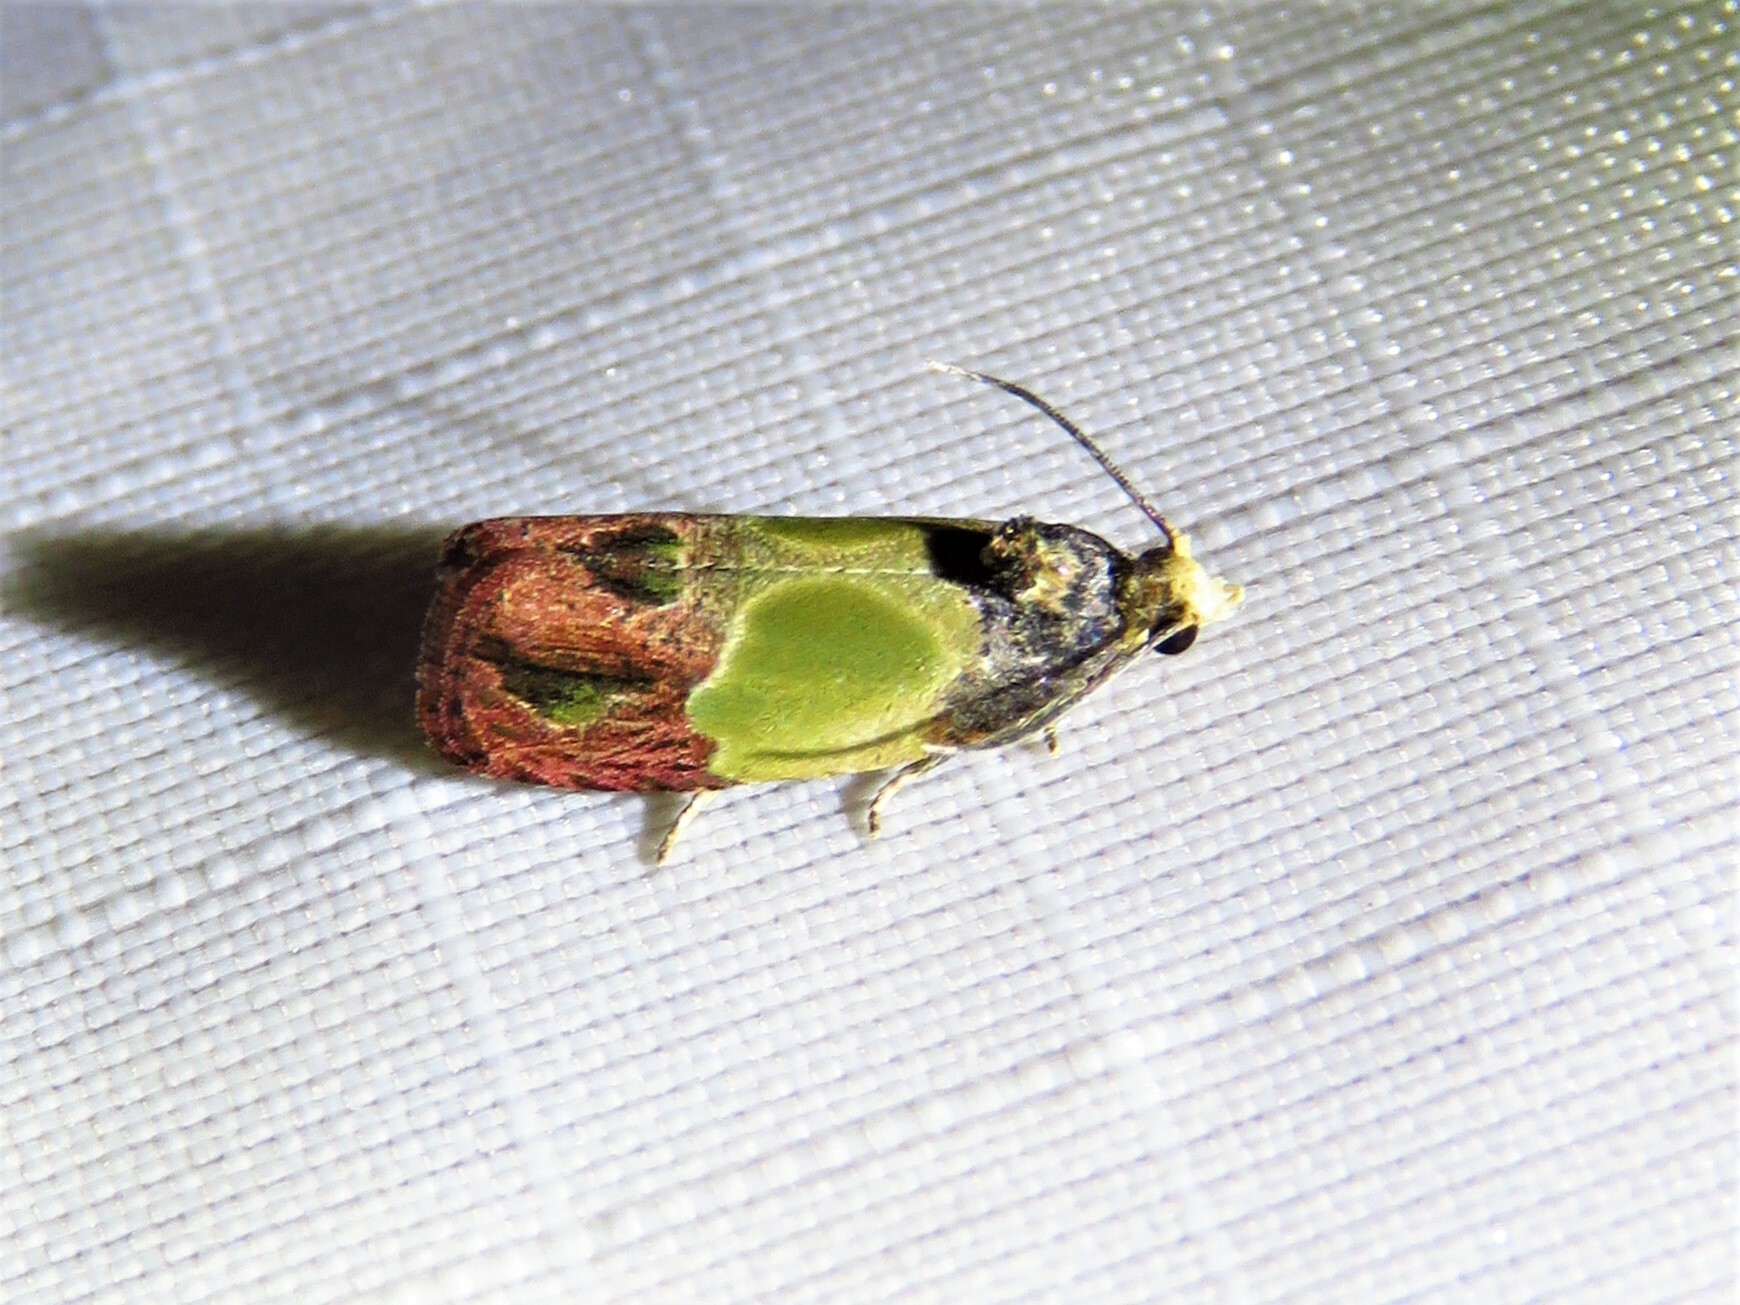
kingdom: Animalia
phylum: Arthropoda
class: Insecta
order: Lepidoptera
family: Tortricidae
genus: Eumarozia
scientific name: Eumarozia malachitana
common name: Sculptured moth
